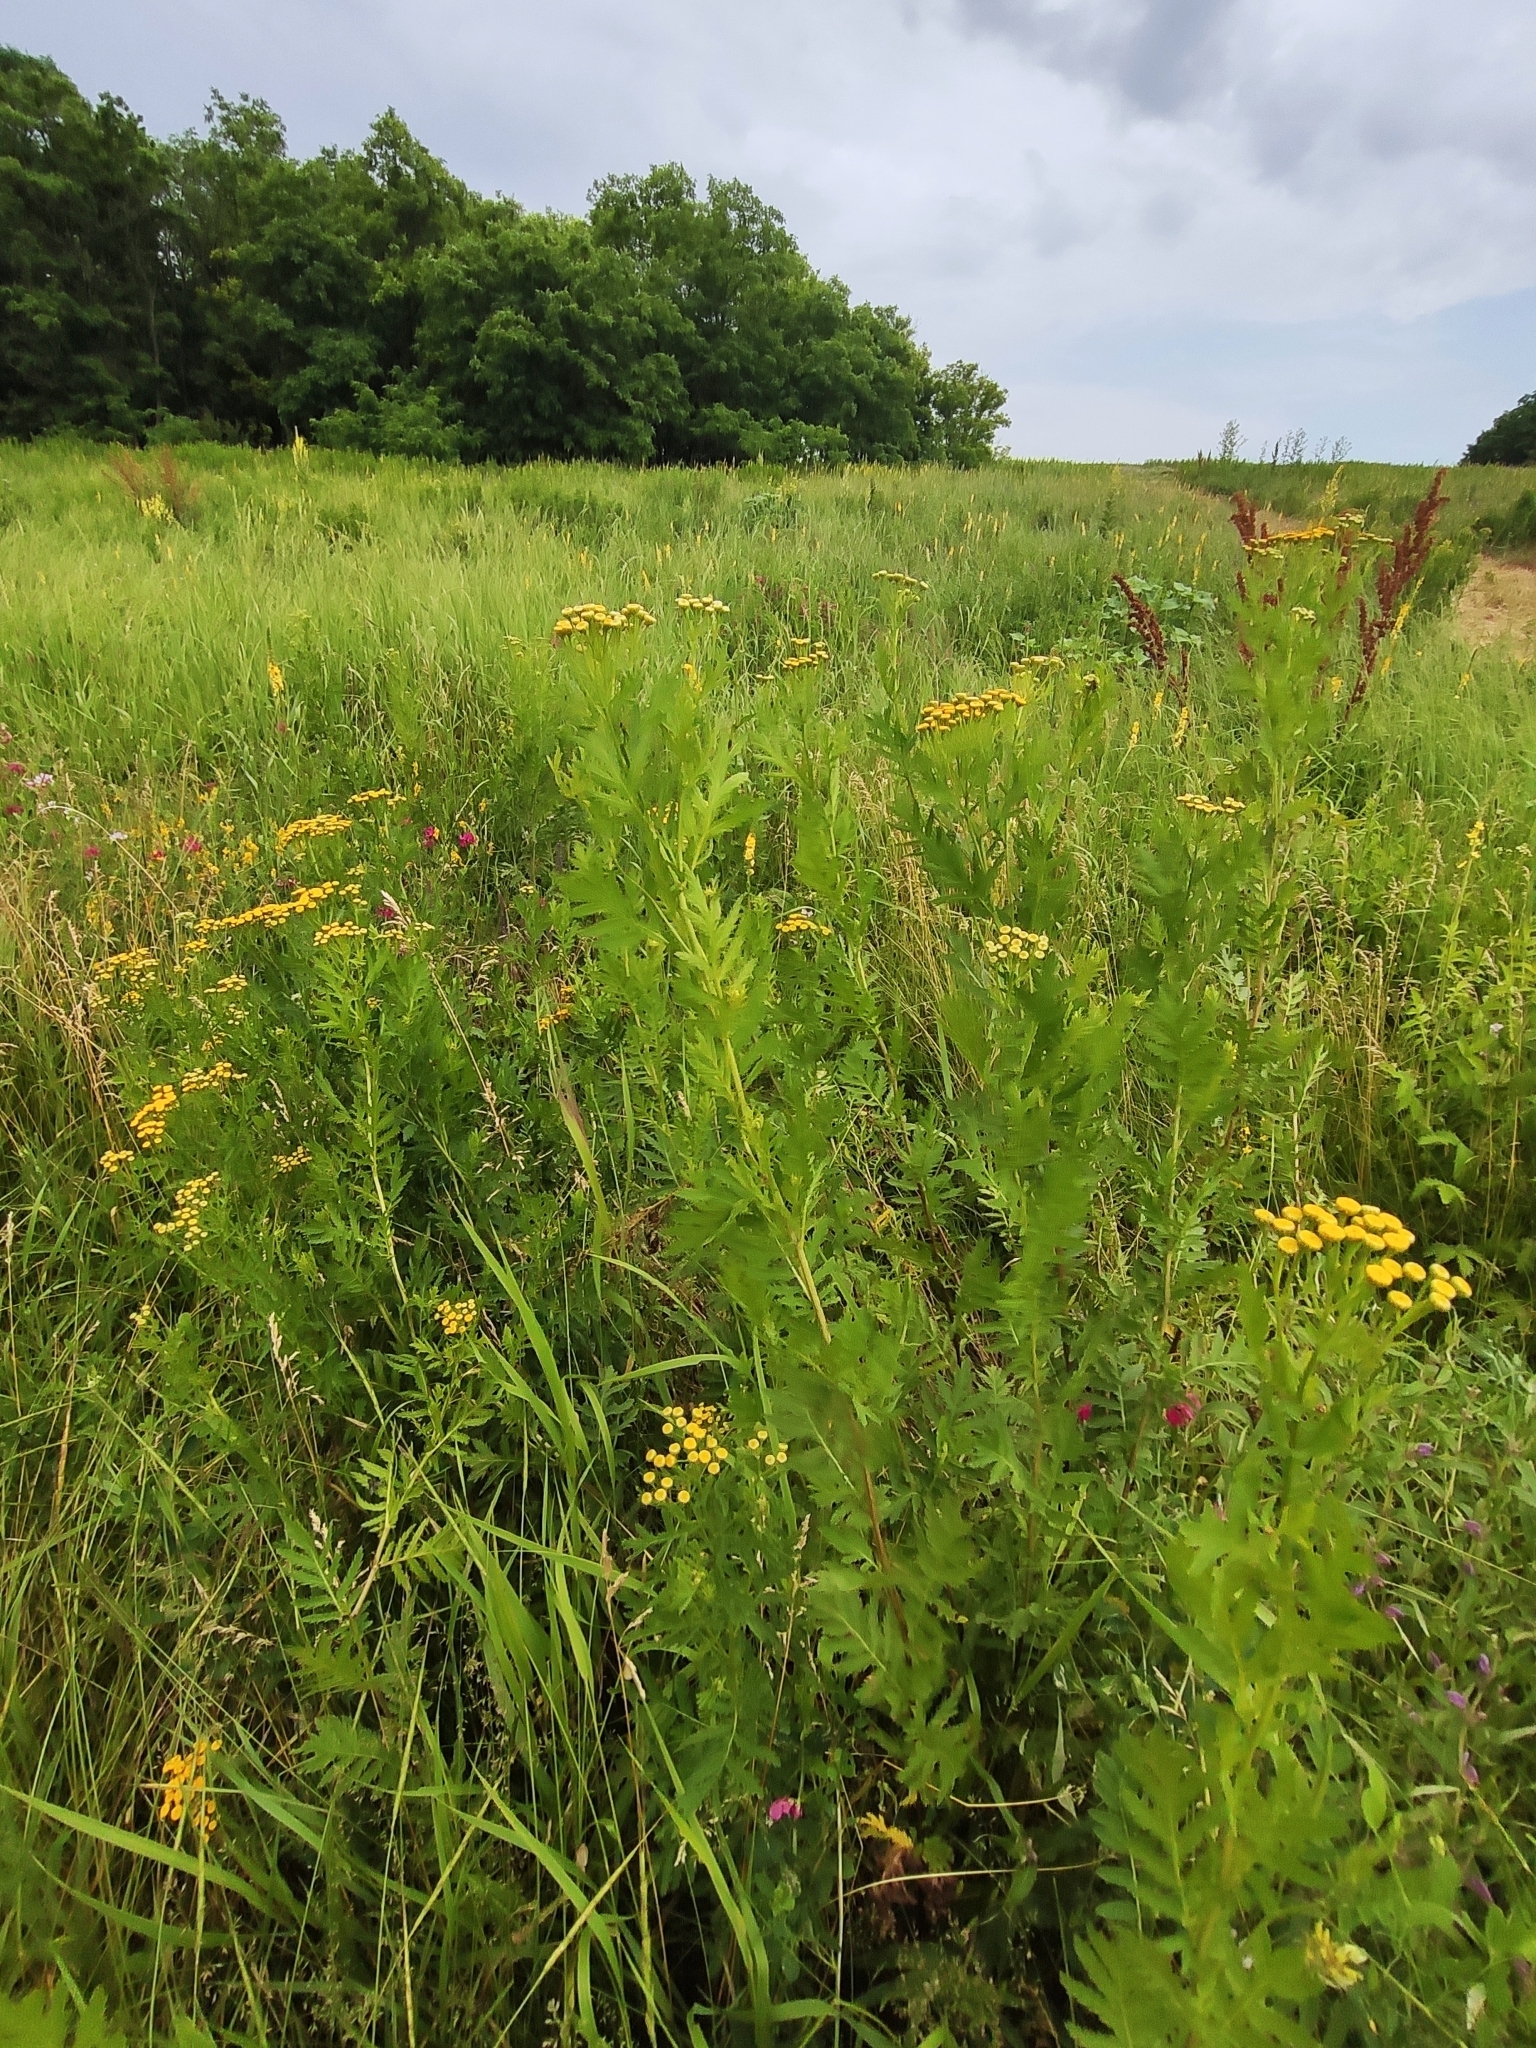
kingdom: Plantae
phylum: Tracheophyta
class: Magnoliopsida
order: Asterales
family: Asteraceae
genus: Tanacetum
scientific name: Tanacetum vulgare
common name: Common tansy
